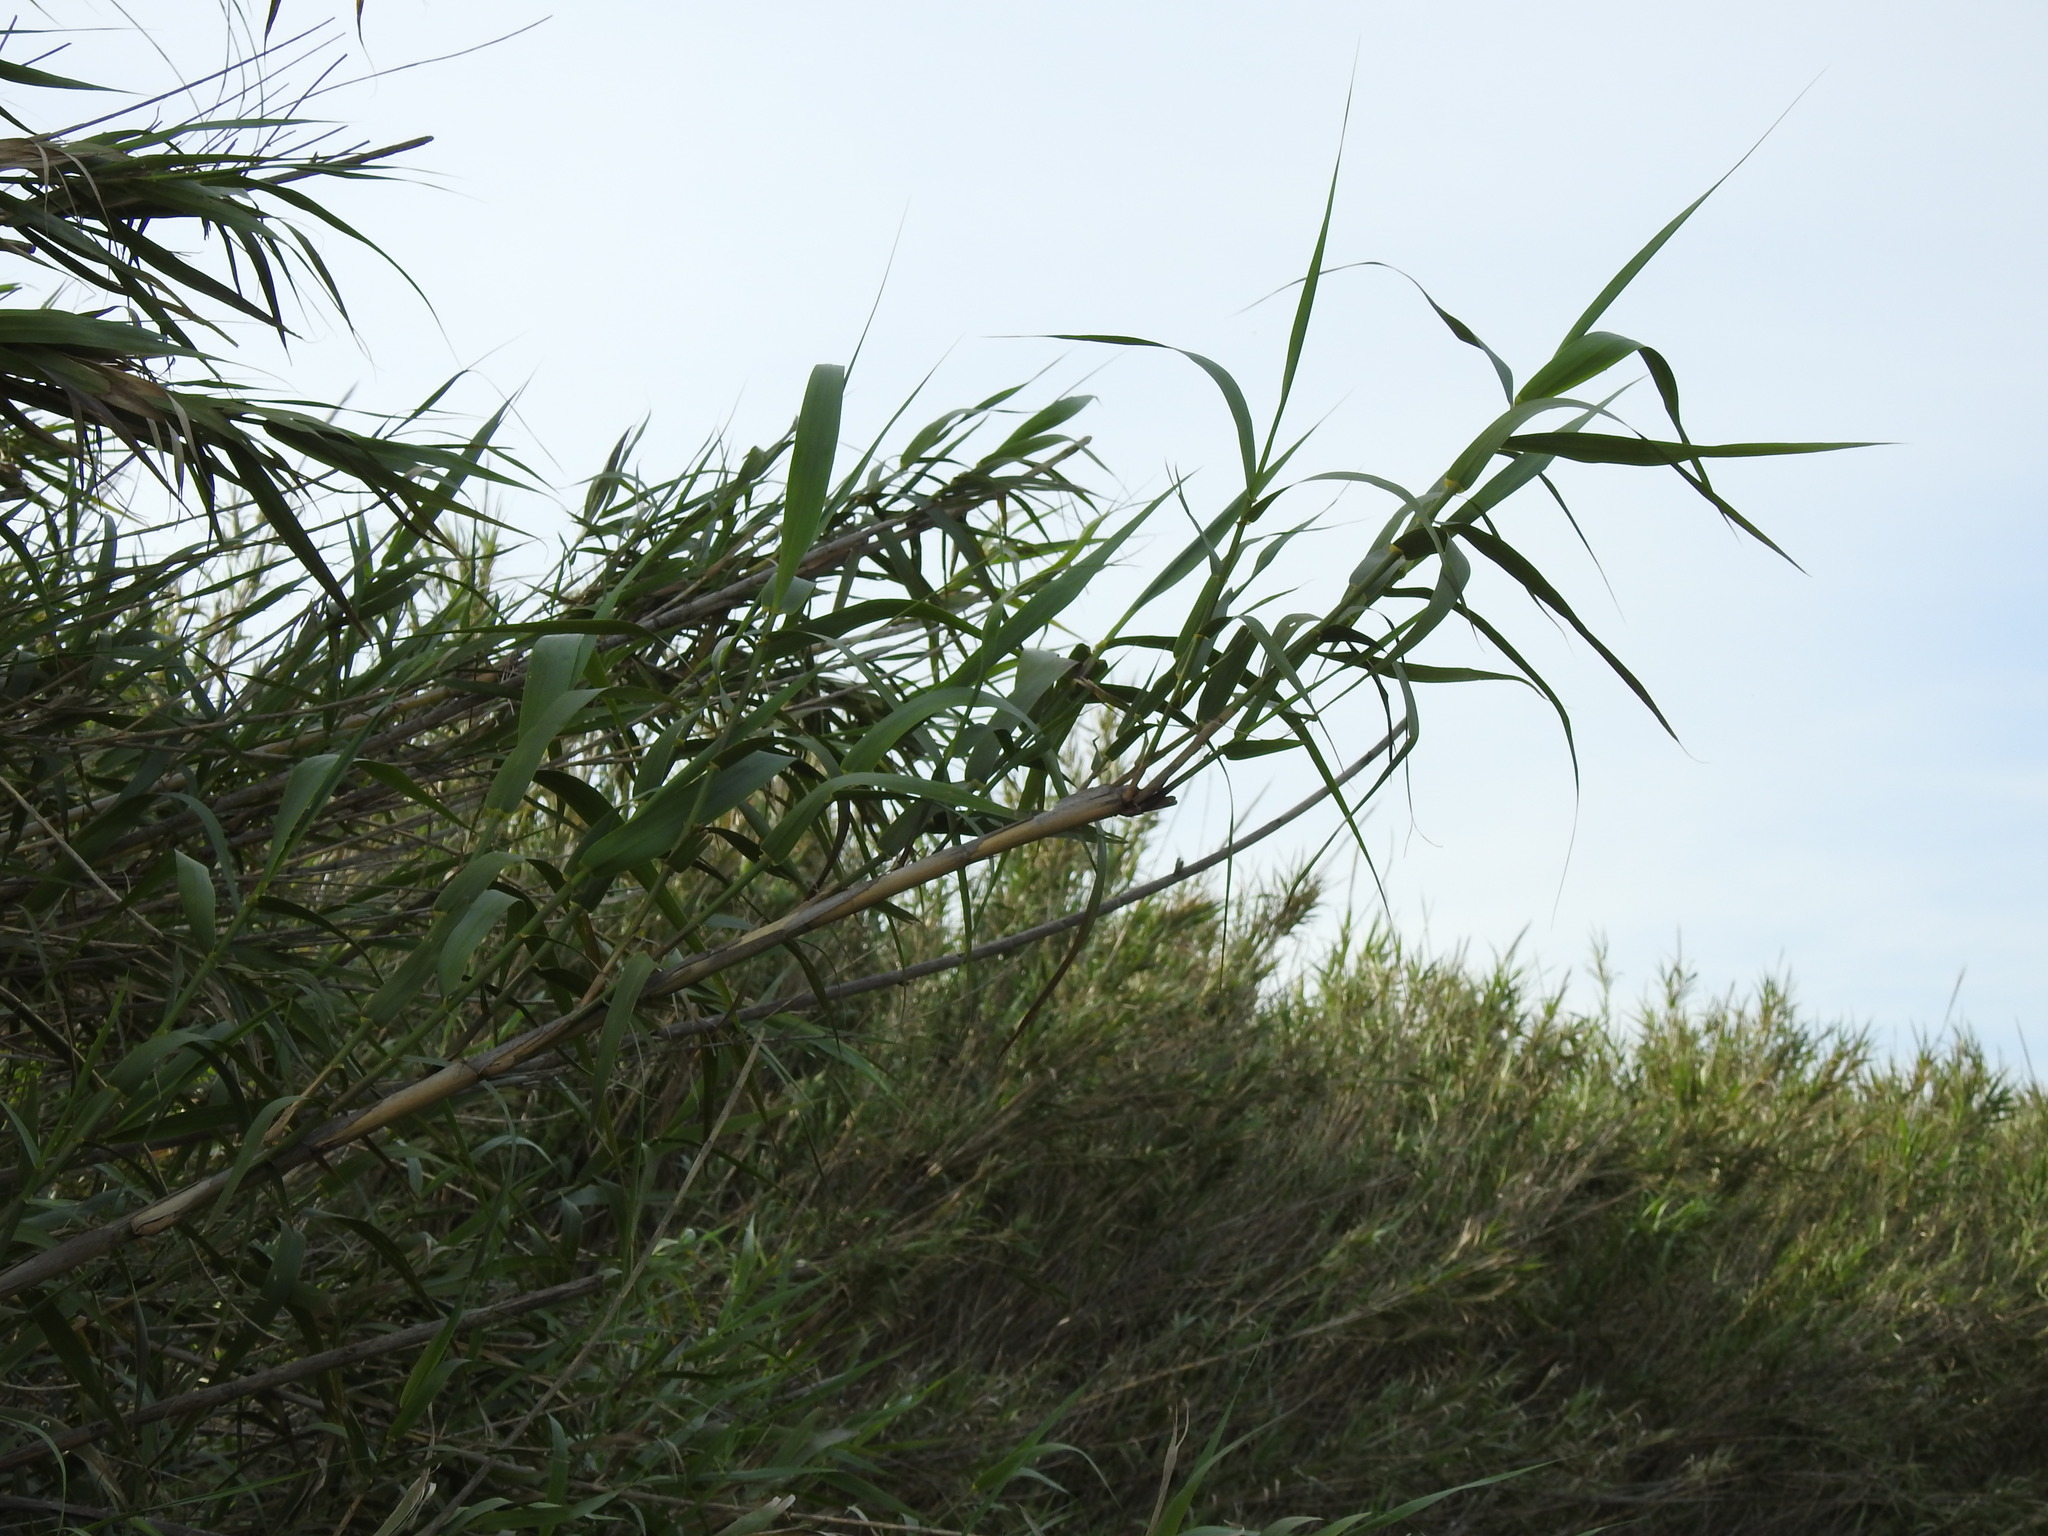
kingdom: Plantae
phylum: Tracheophyta
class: Liliopsida
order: Poales
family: Poaceae
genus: Arundo
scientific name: Arundo donax
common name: Giant reed
